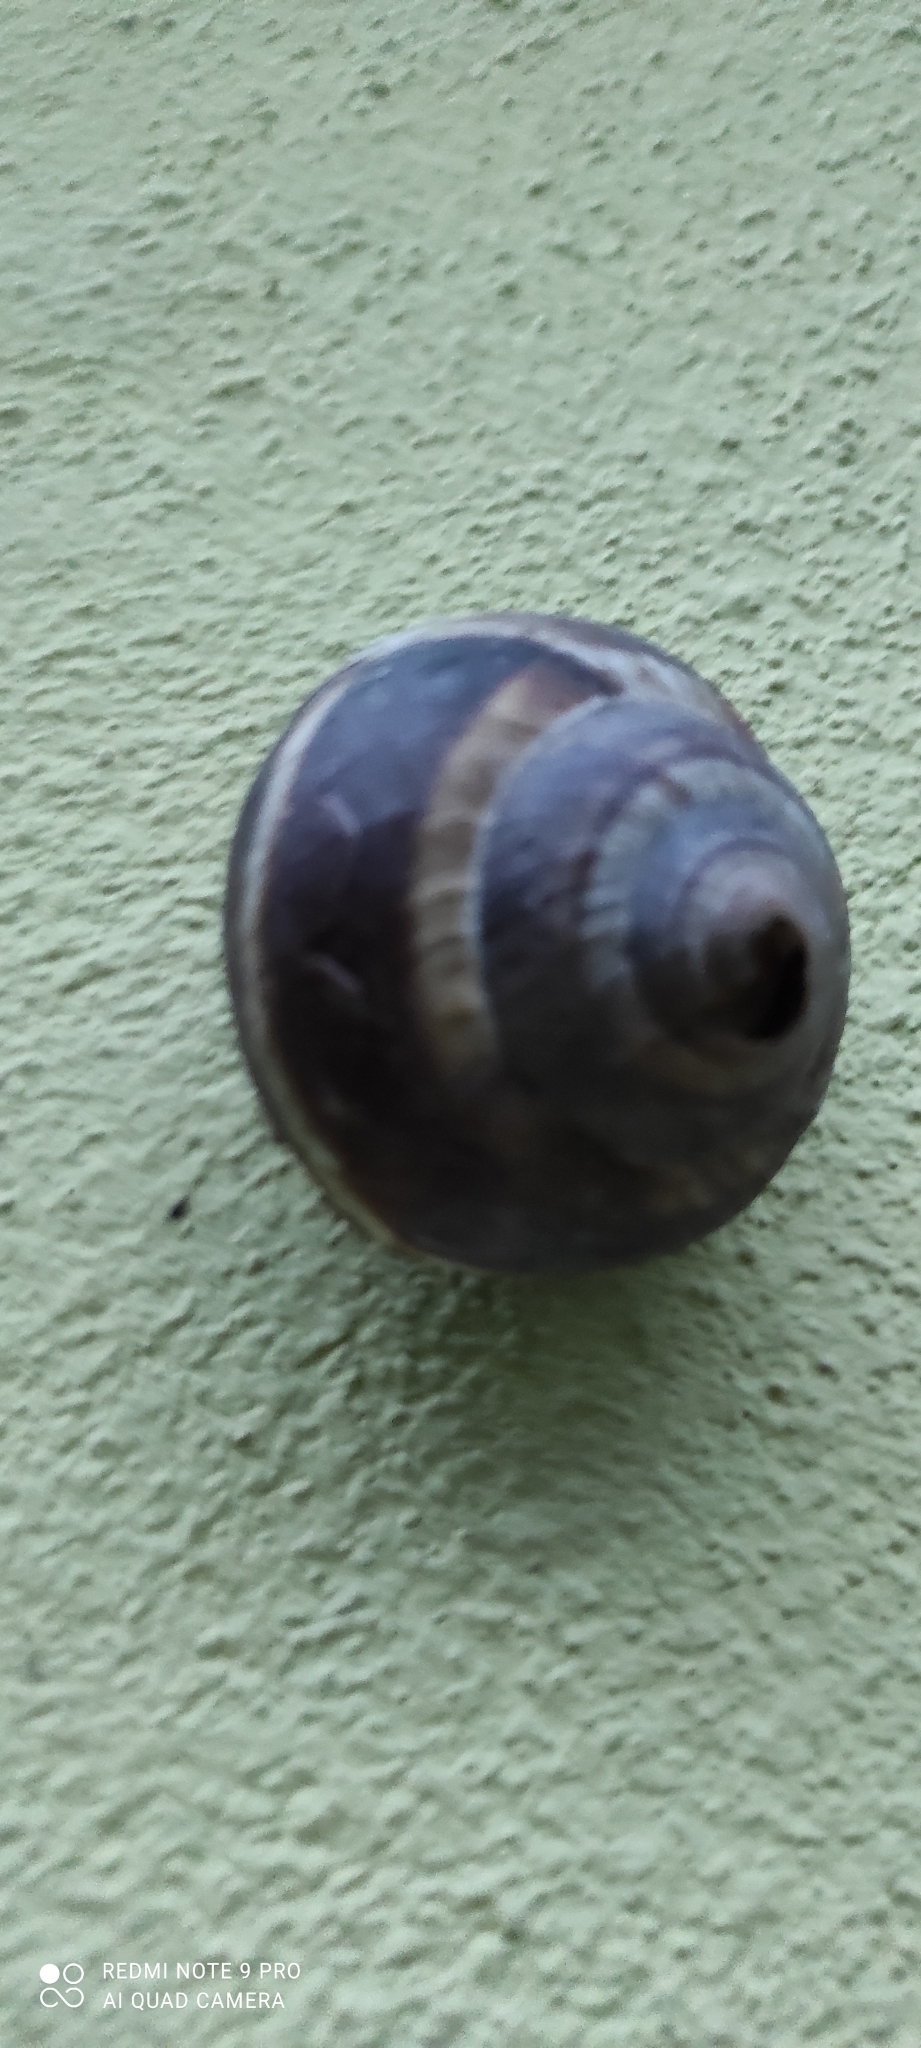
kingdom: Animalia
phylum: Mollusca
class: Gastropoda
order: Stylommatophora
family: Helicidae
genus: Helix
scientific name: Helix straminea
